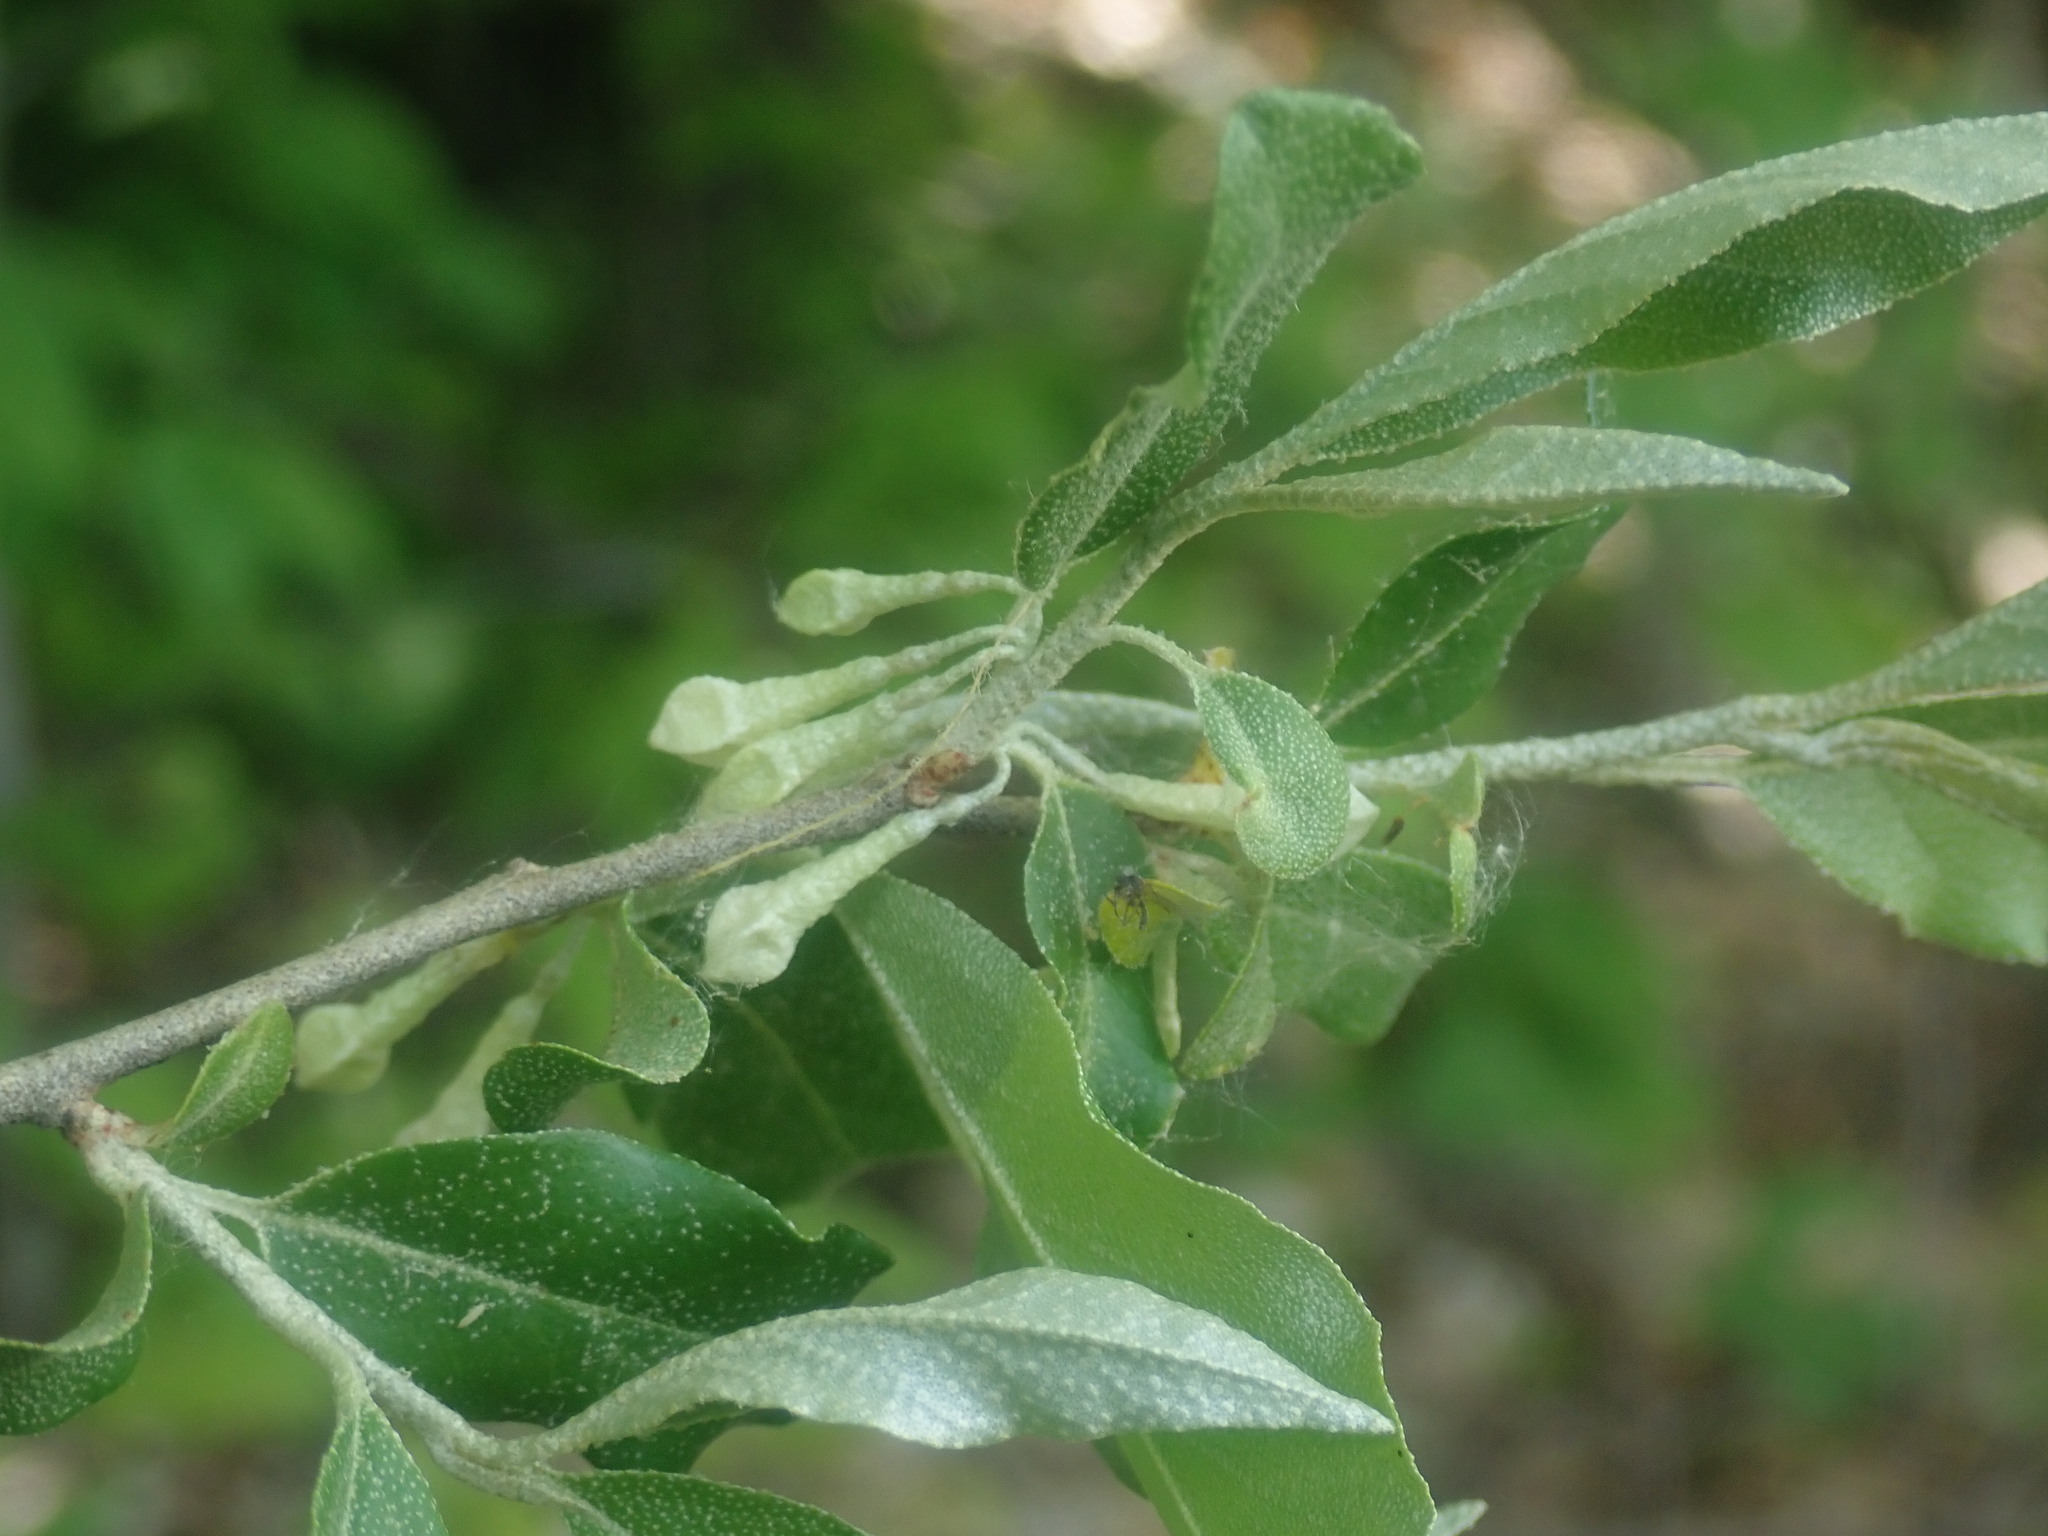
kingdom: Plantae
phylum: Tracheophyta
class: Magnoliopsida
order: Rosales
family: Elaeagnaceae
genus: Elaeagnus
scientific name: Elaeagnus umbellata
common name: Autumn olive
